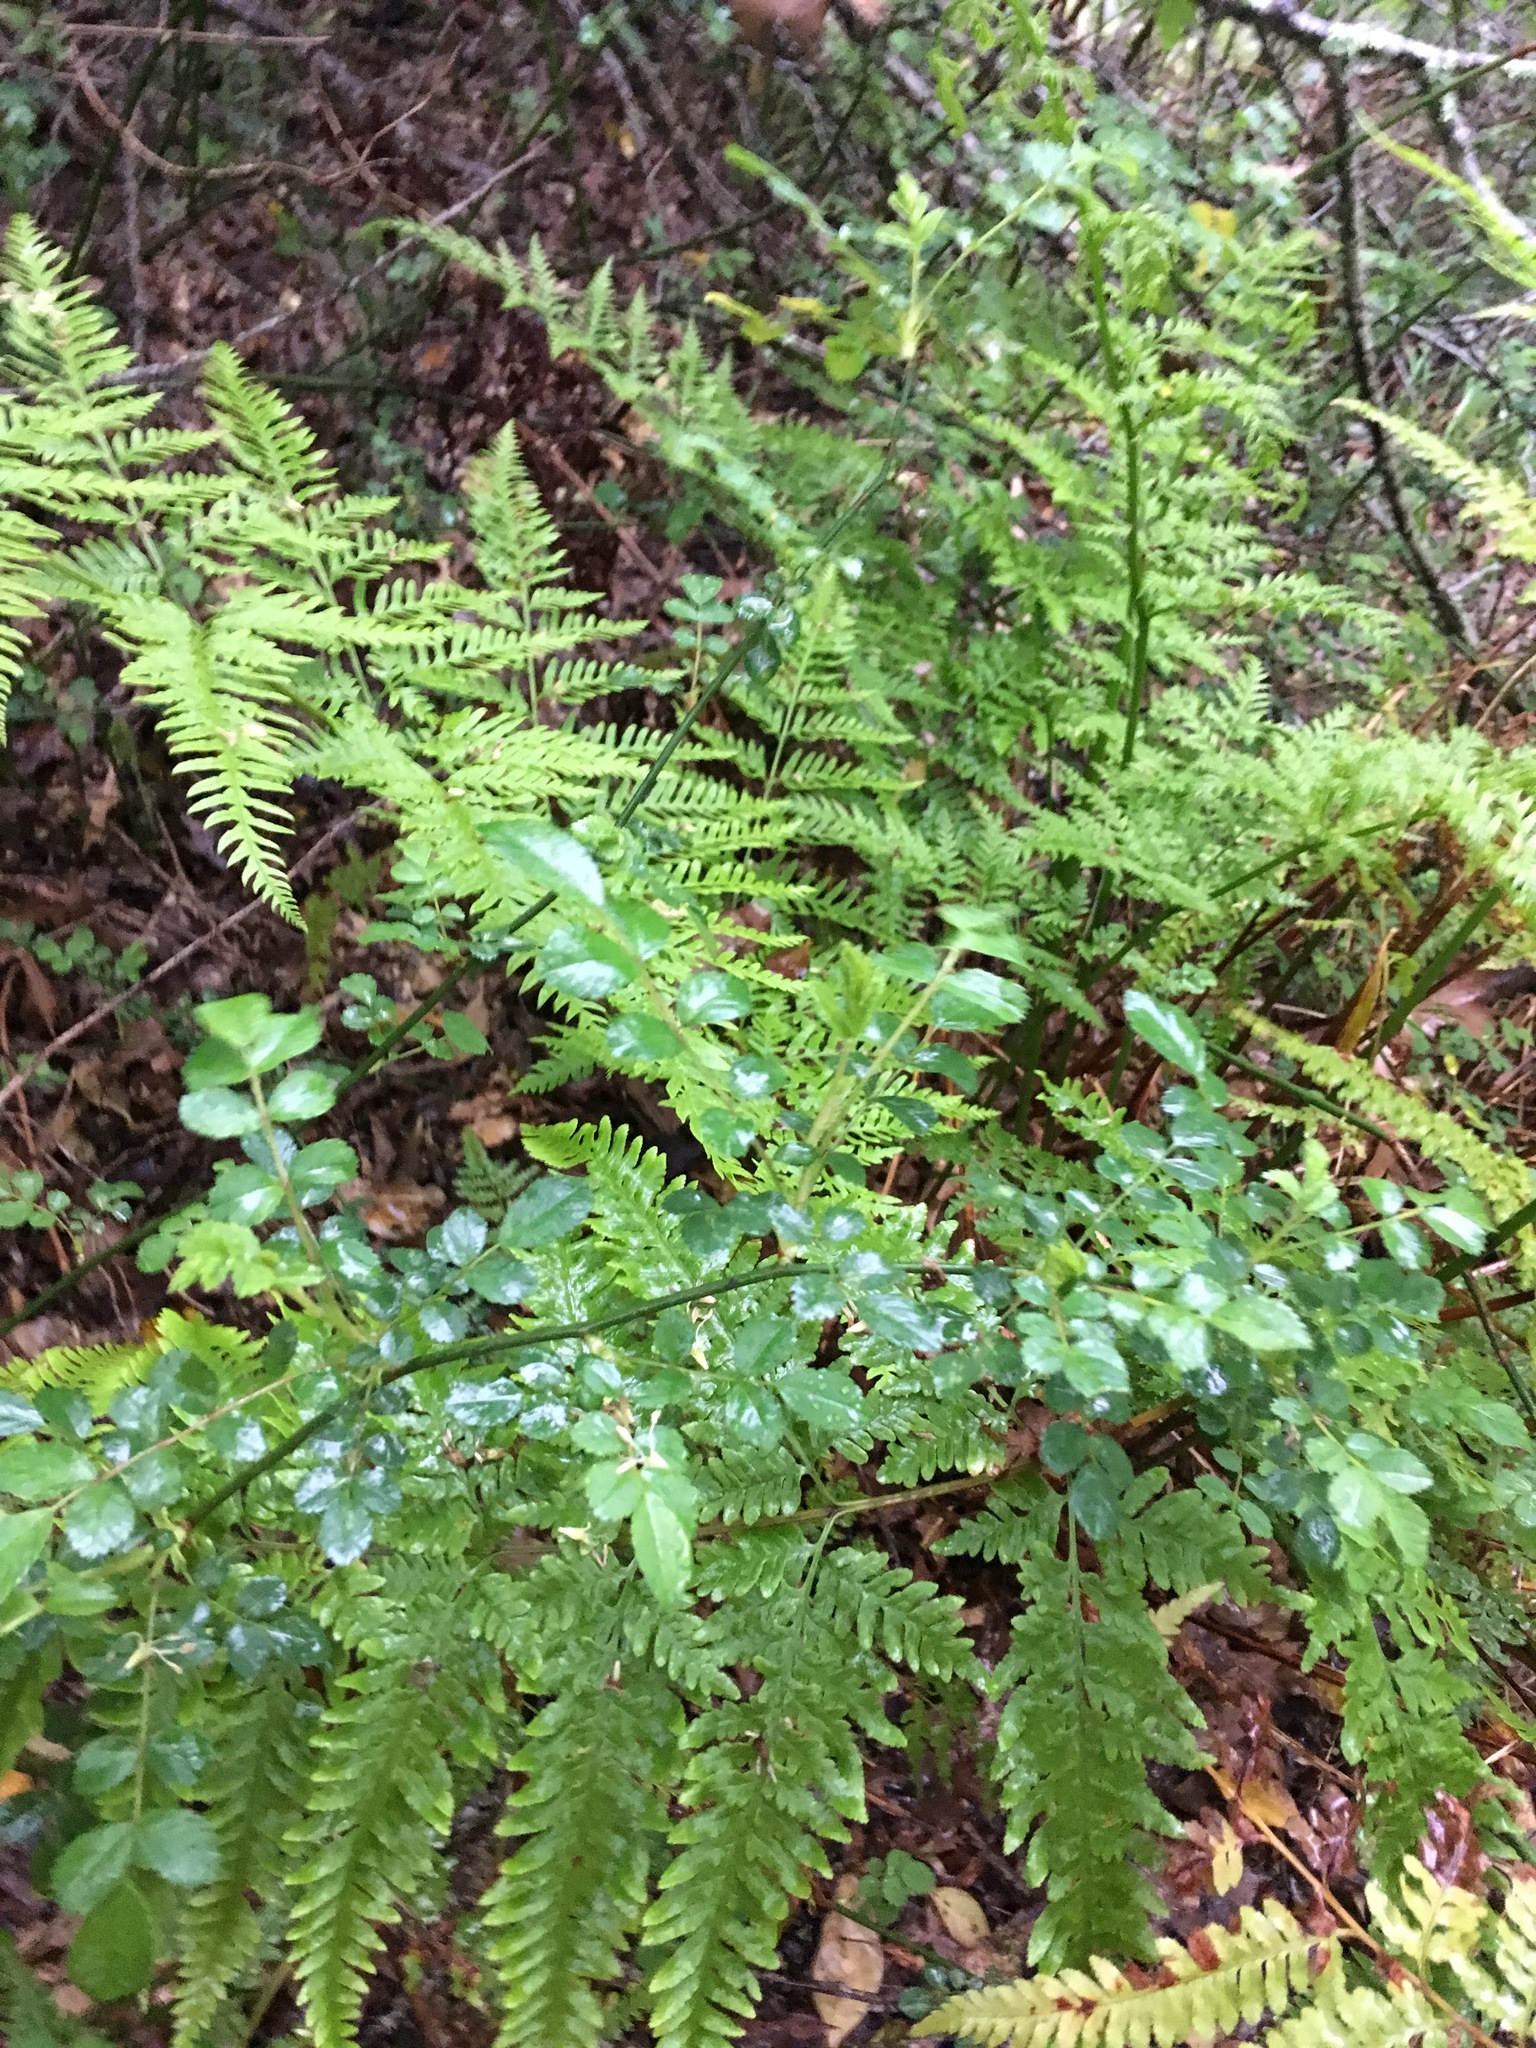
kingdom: Plantae
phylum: Tracheophyta
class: Polypodiopsida
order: Polypodiales
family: Pteridaceae
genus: Pteris
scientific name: Pteris tremula
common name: Australian brake
